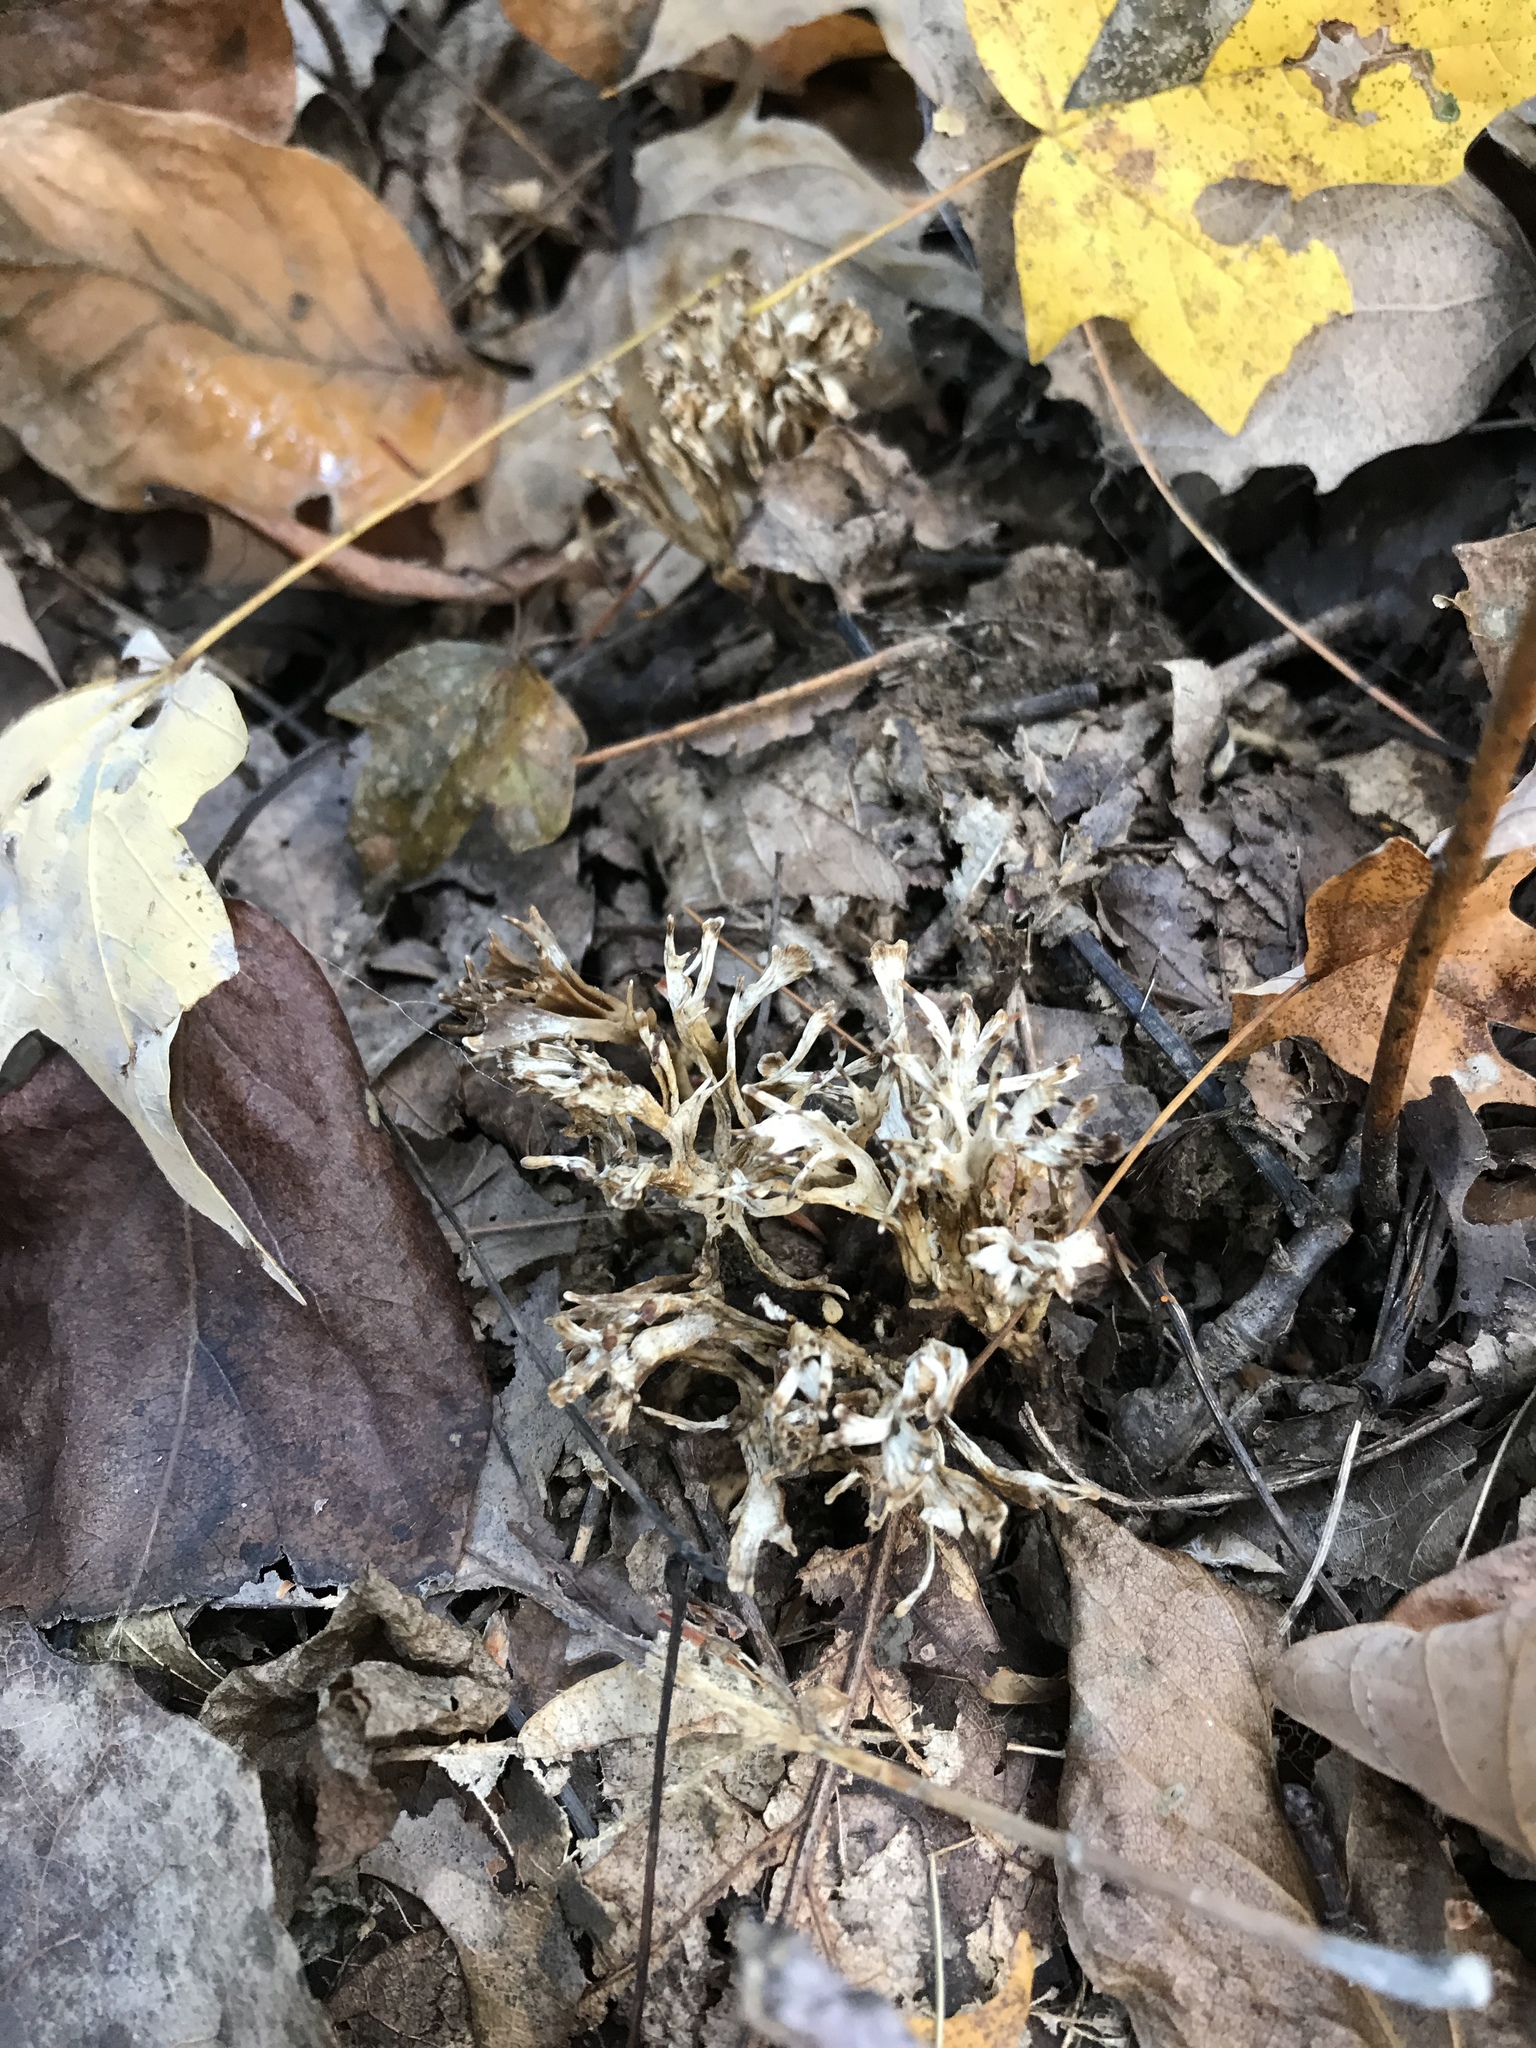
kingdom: Fungi
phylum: Basidiomycota
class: Agaricomycetes
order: Sebacinales
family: Sebacinaceae
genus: Sebacina
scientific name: Sebacina schweinitzii
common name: Jellied false coral fungus
